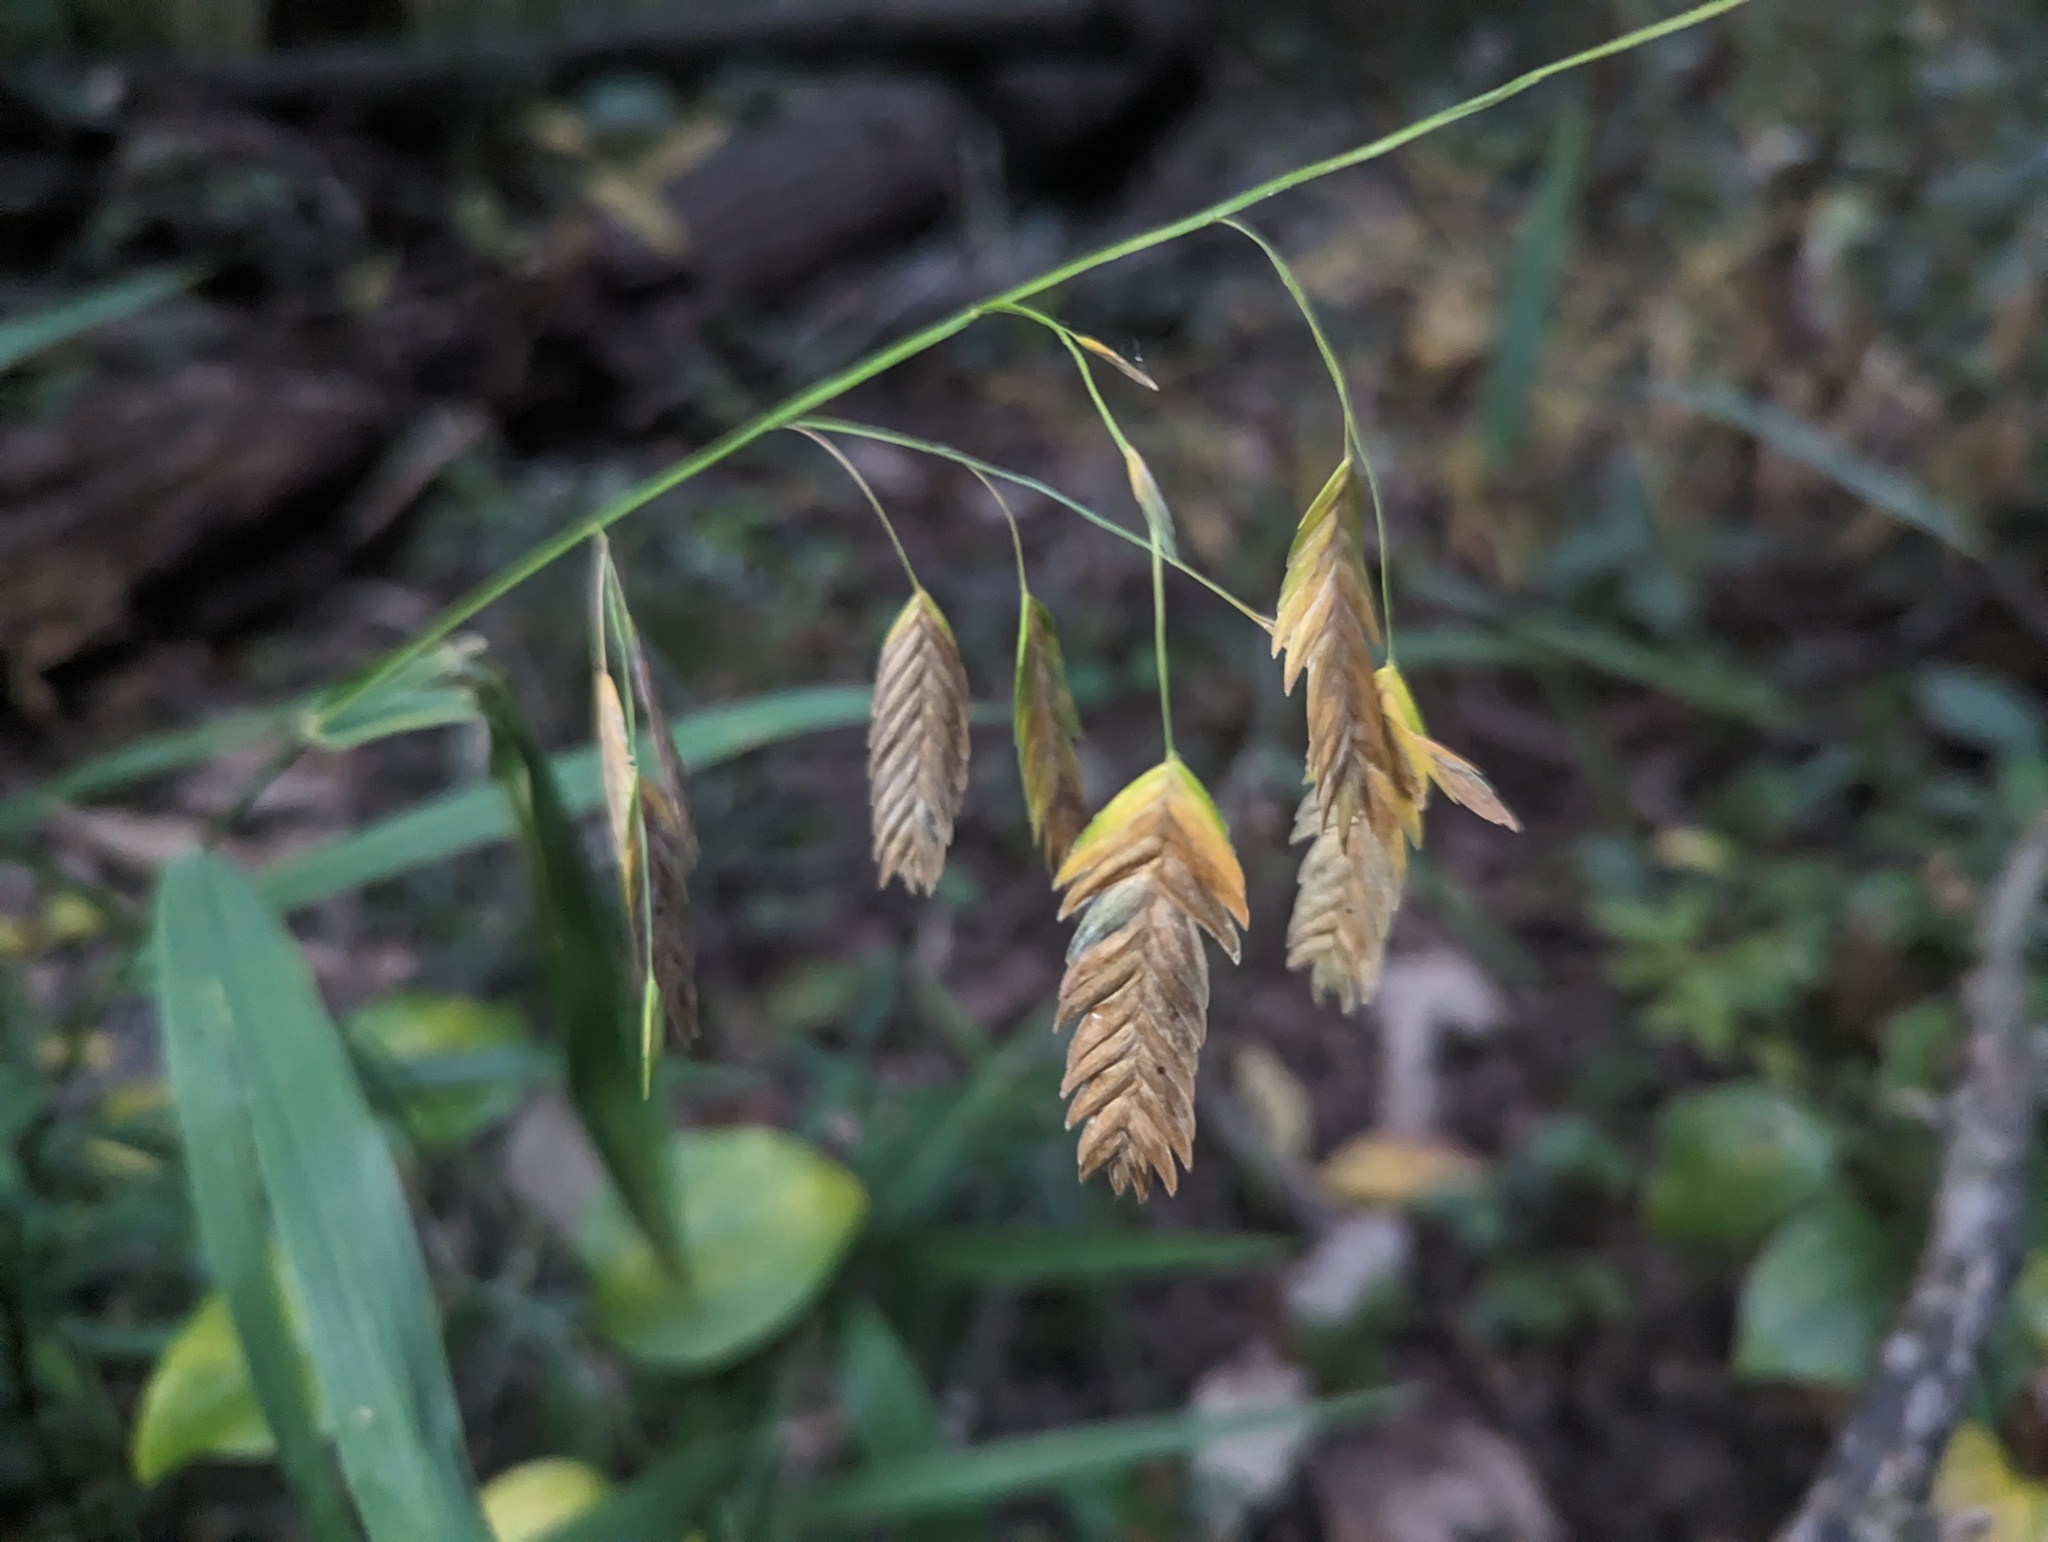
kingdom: Plantae
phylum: Tracheophyta
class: Liliopsida
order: Poales
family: Poaceae
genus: Chasmanthium
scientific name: Chasmanthium latifolium
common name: Broad-leaved chasmanthium
